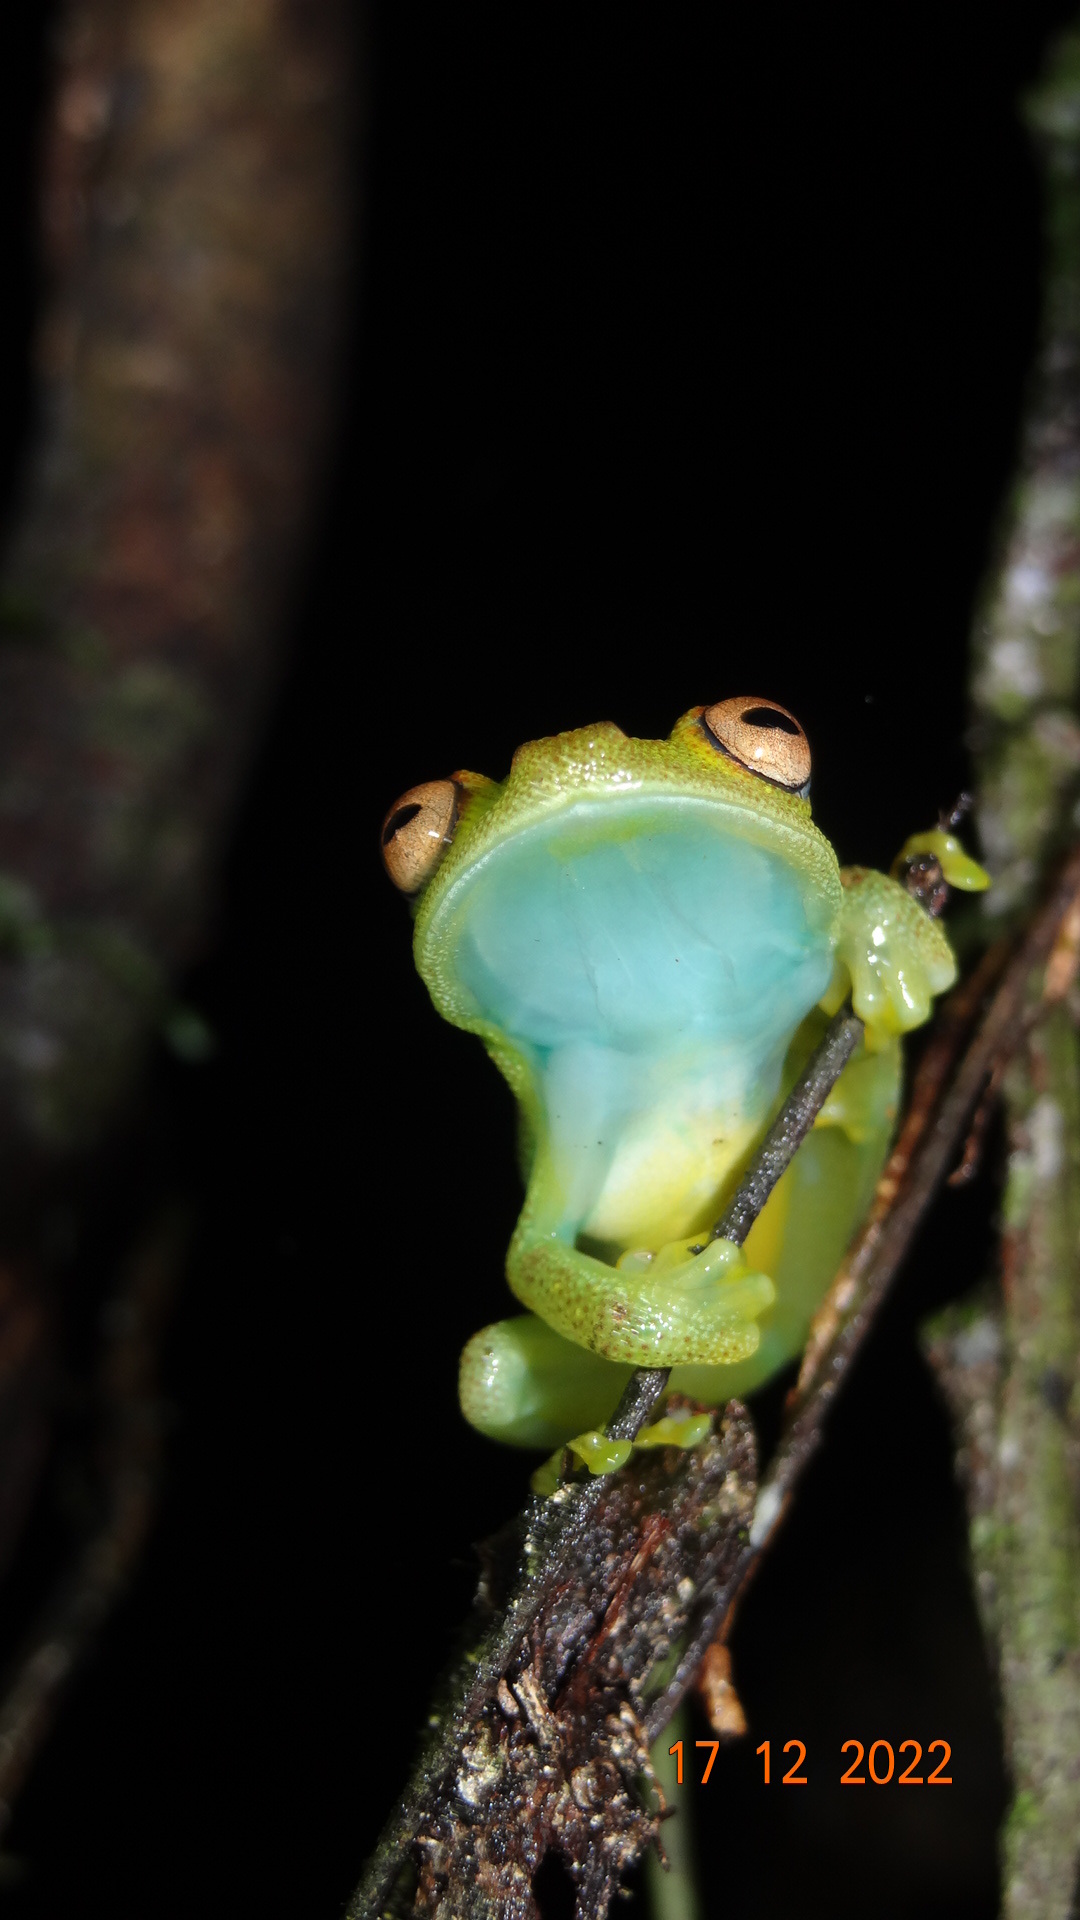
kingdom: Animalia
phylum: Chordata
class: Amphibia
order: Anura
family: Hylidae
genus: Boana
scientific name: Boana cinerascens
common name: Demerara falls treefrog
